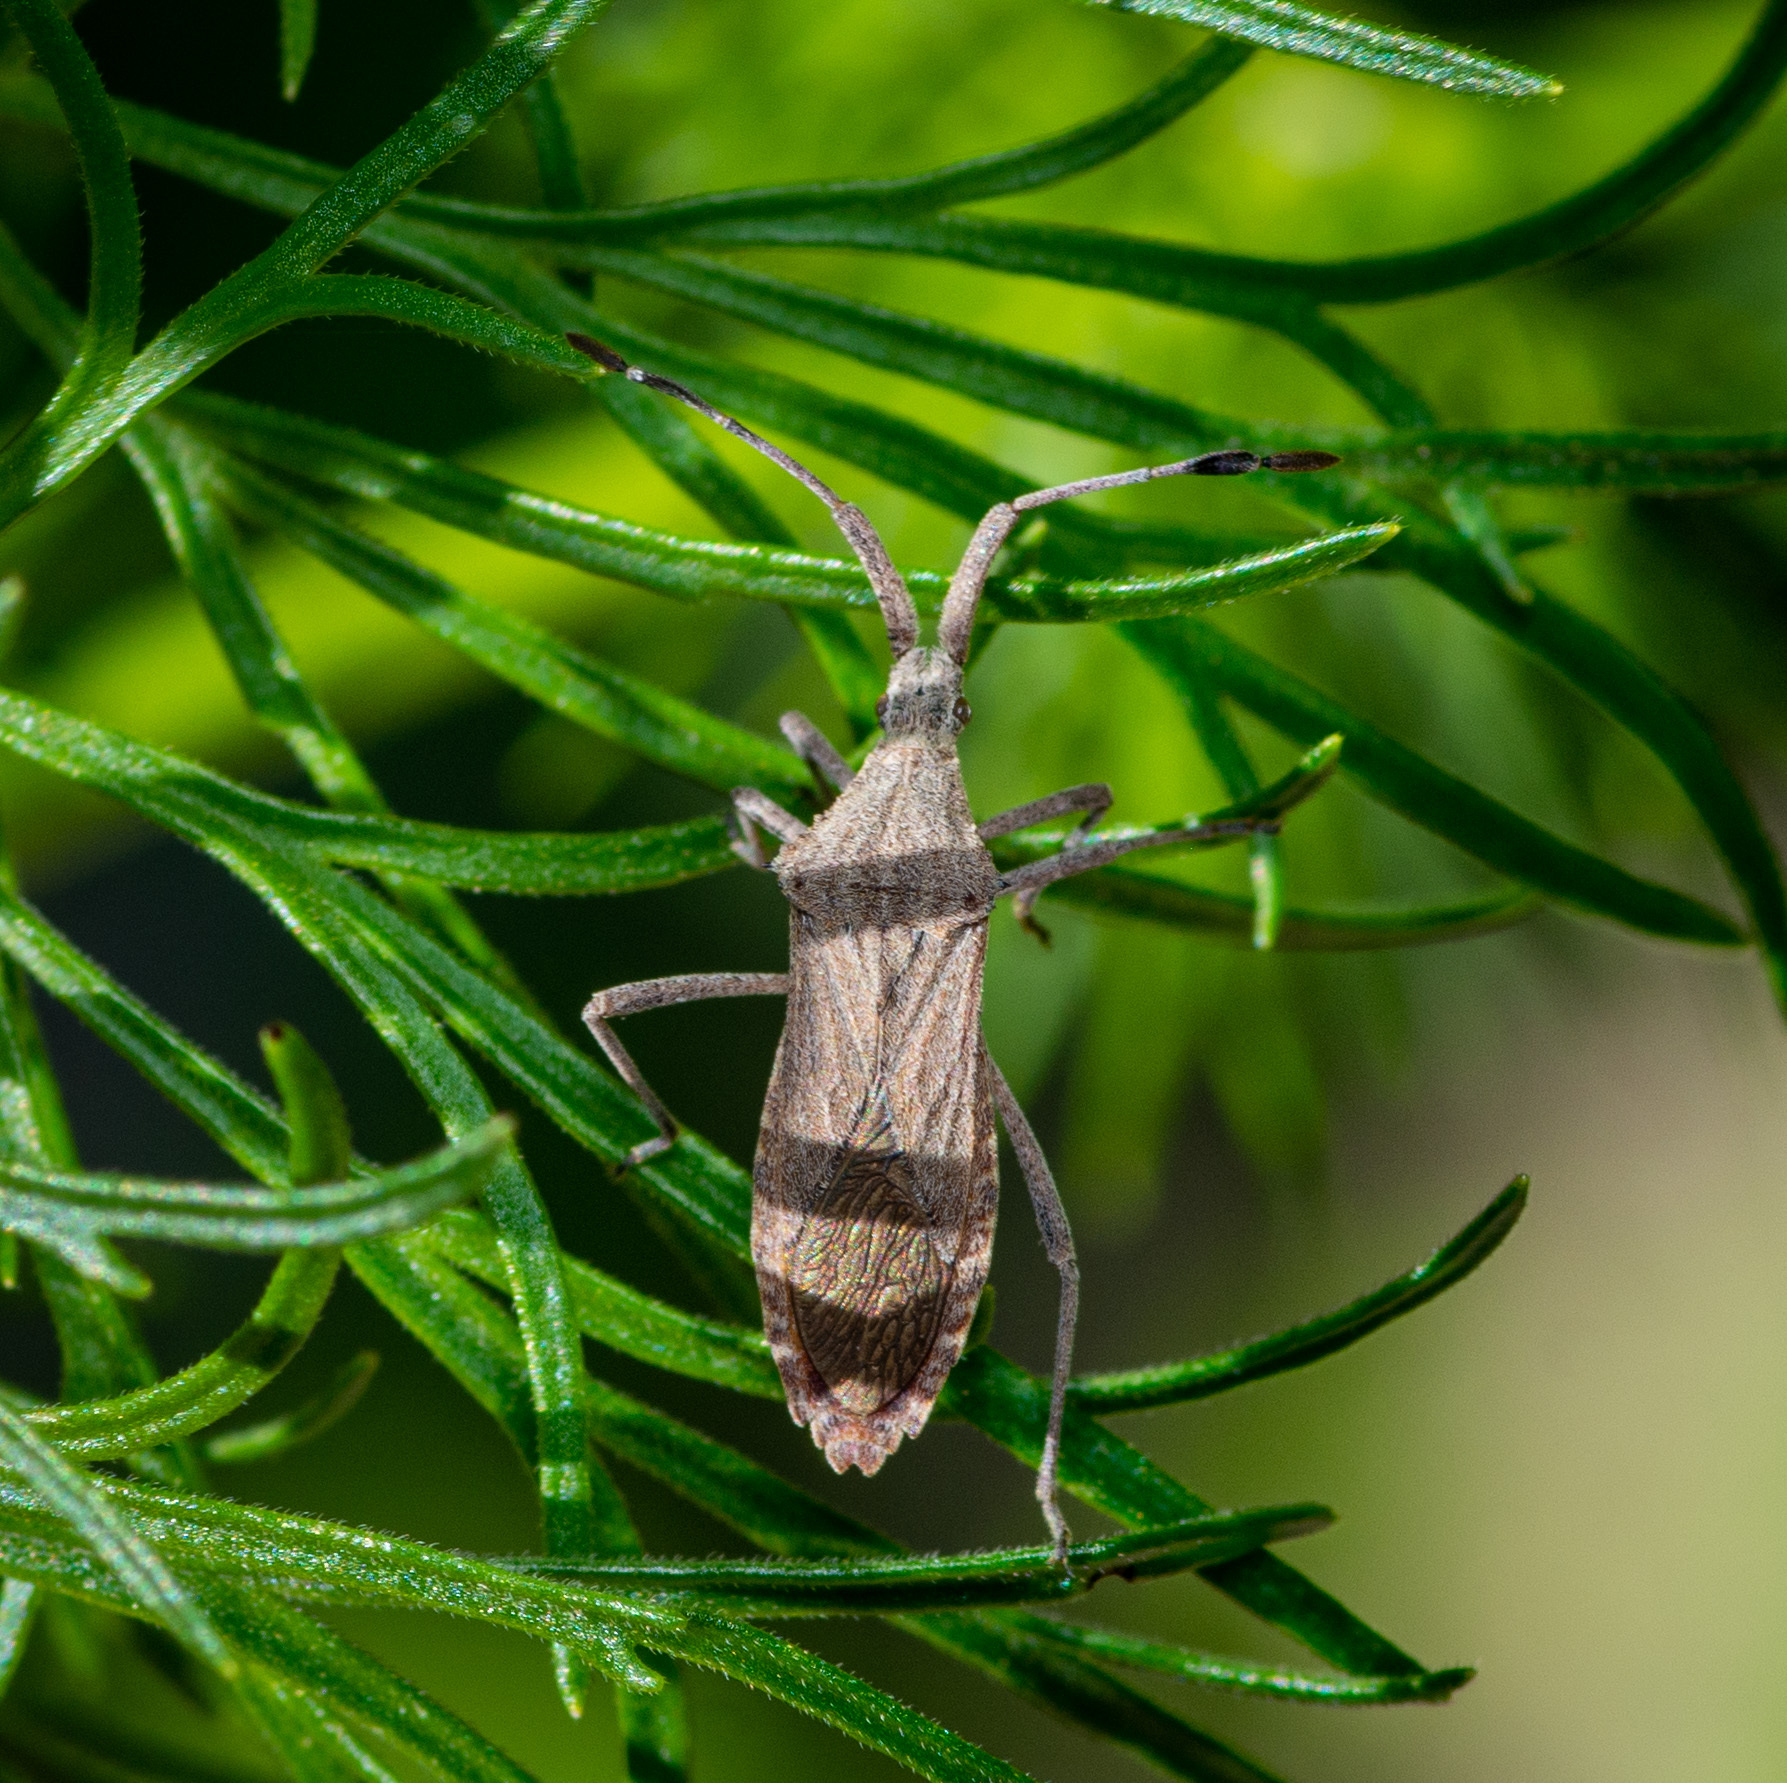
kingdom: Animalia
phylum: Arthropoda
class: Insecta
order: Hemiptera
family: Coreidae
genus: Chariesterus
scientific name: Chariesterus antennator
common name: Flat horned coreid
